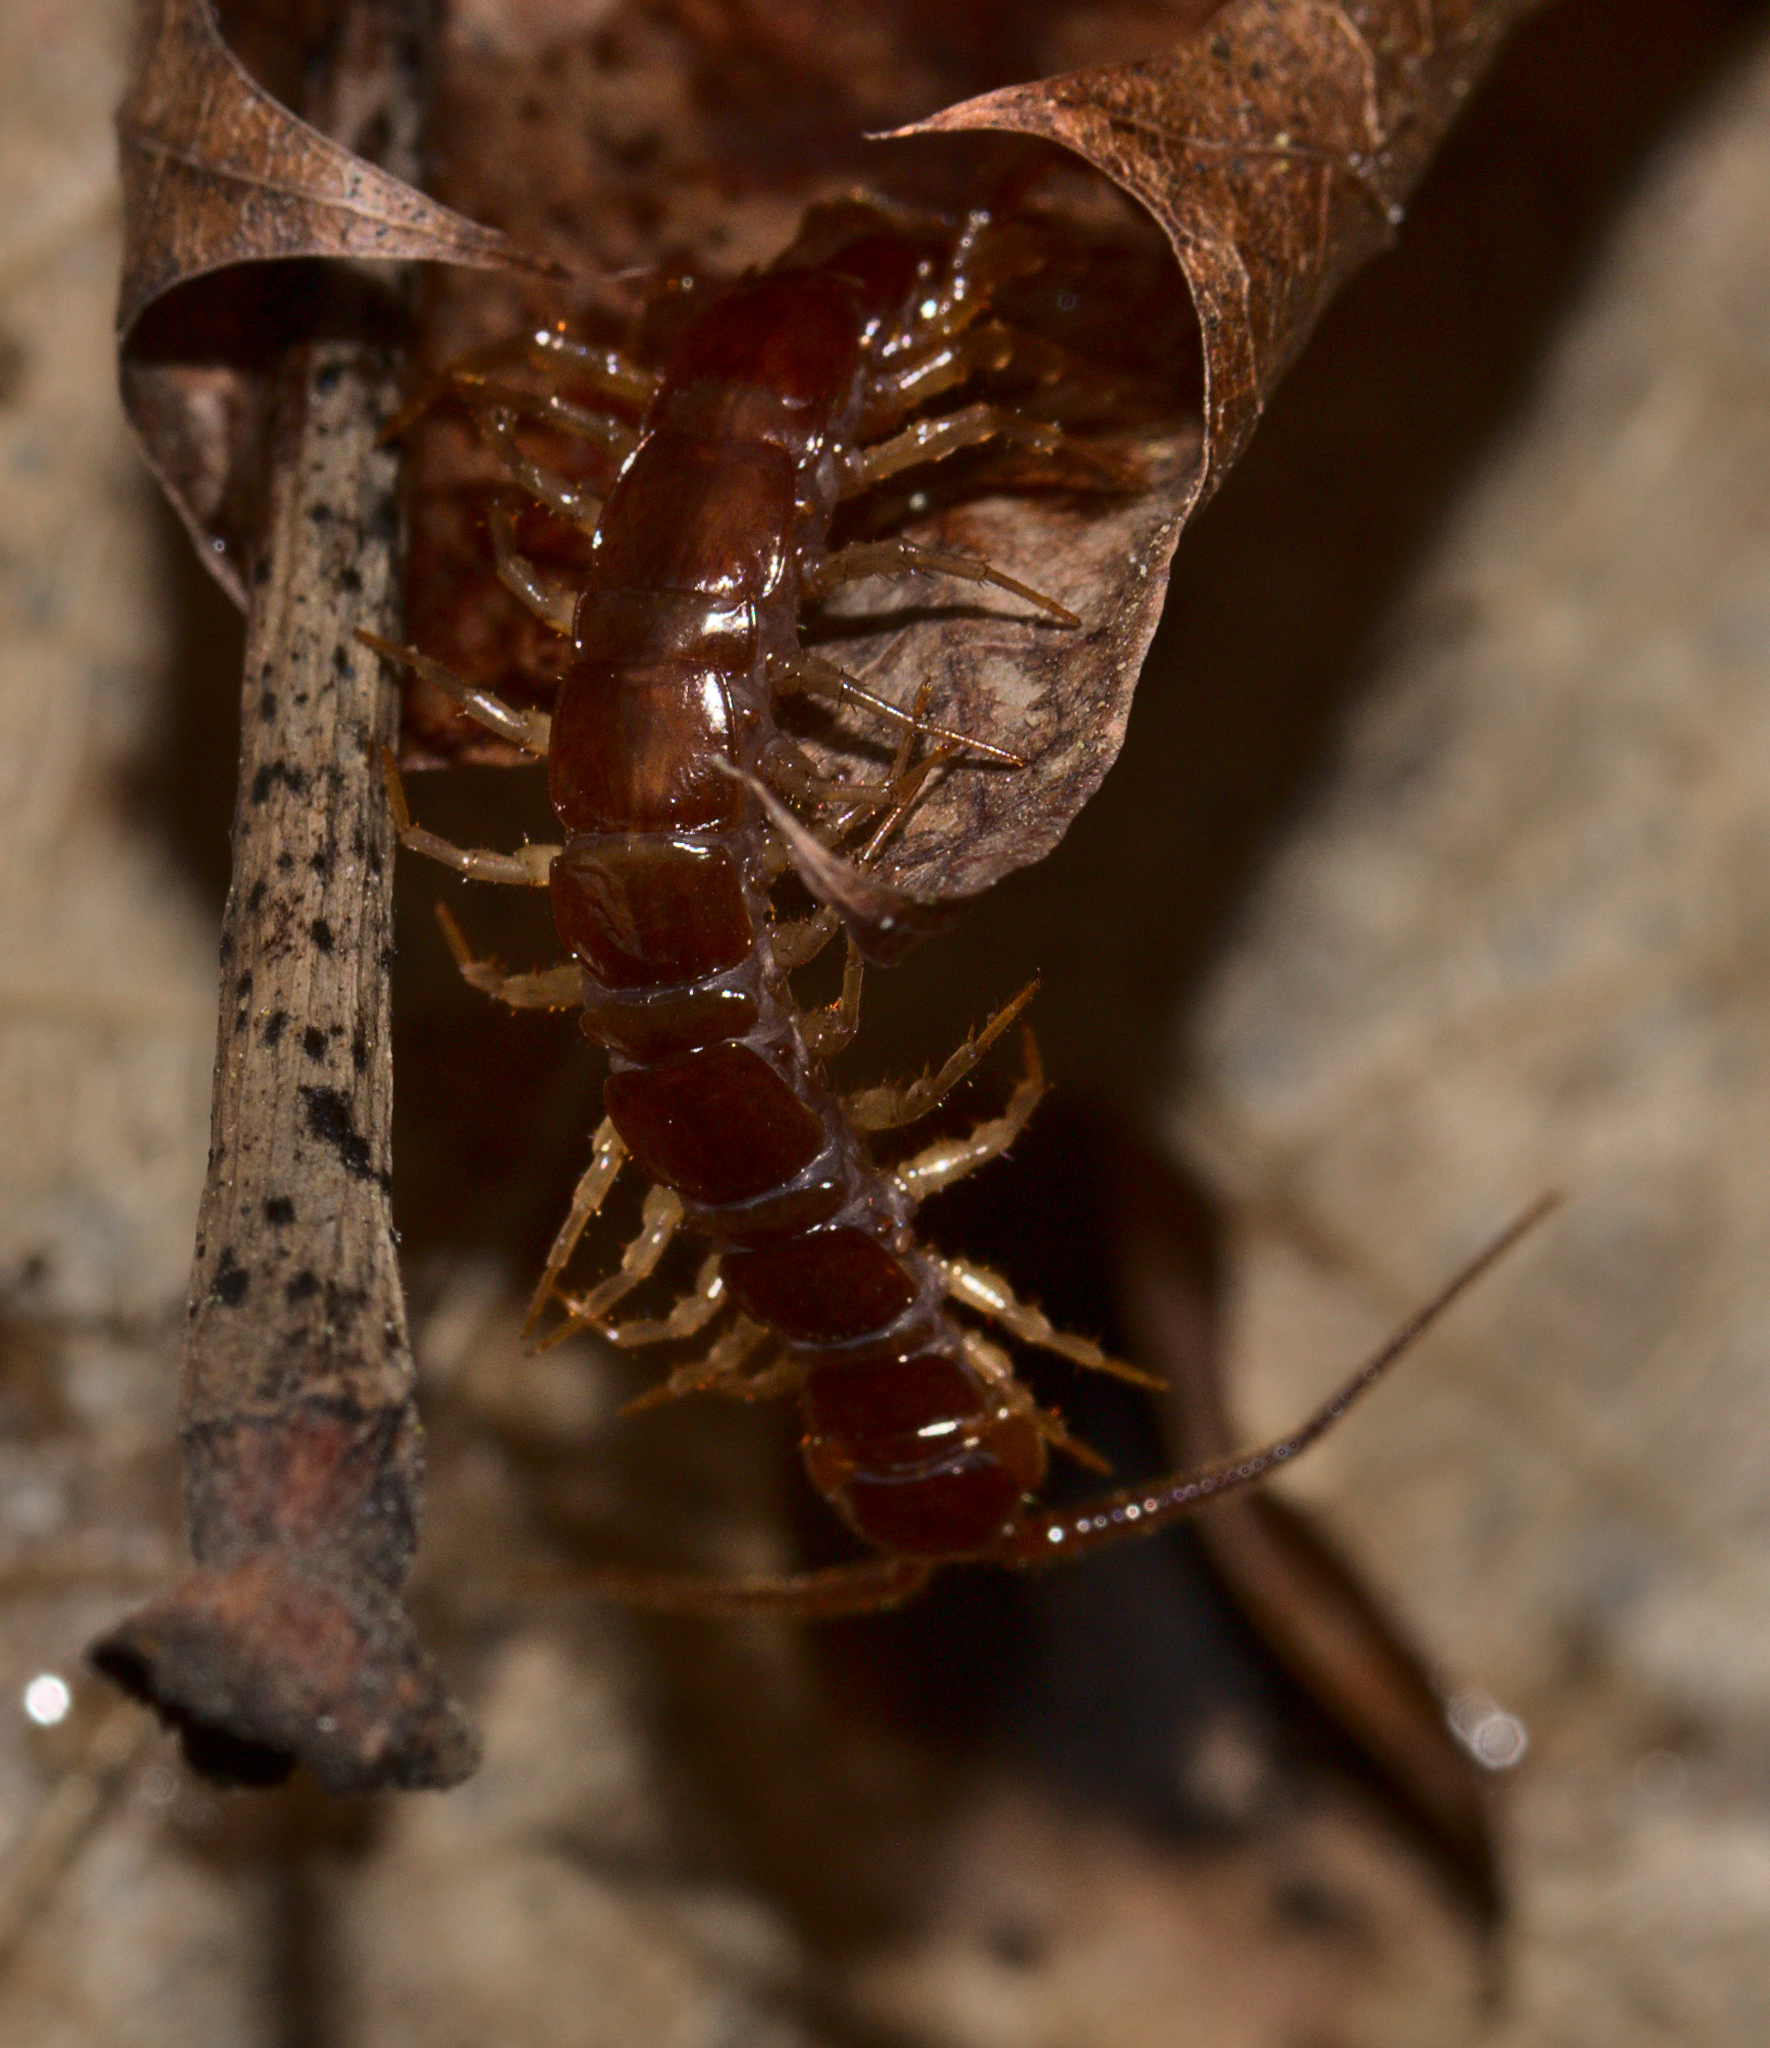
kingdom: Animalia
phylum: Arthropoda
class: Chilopoda
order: Lithobiomorpha
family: Lithobiidae
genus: Lithobius
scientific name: Lithobius
